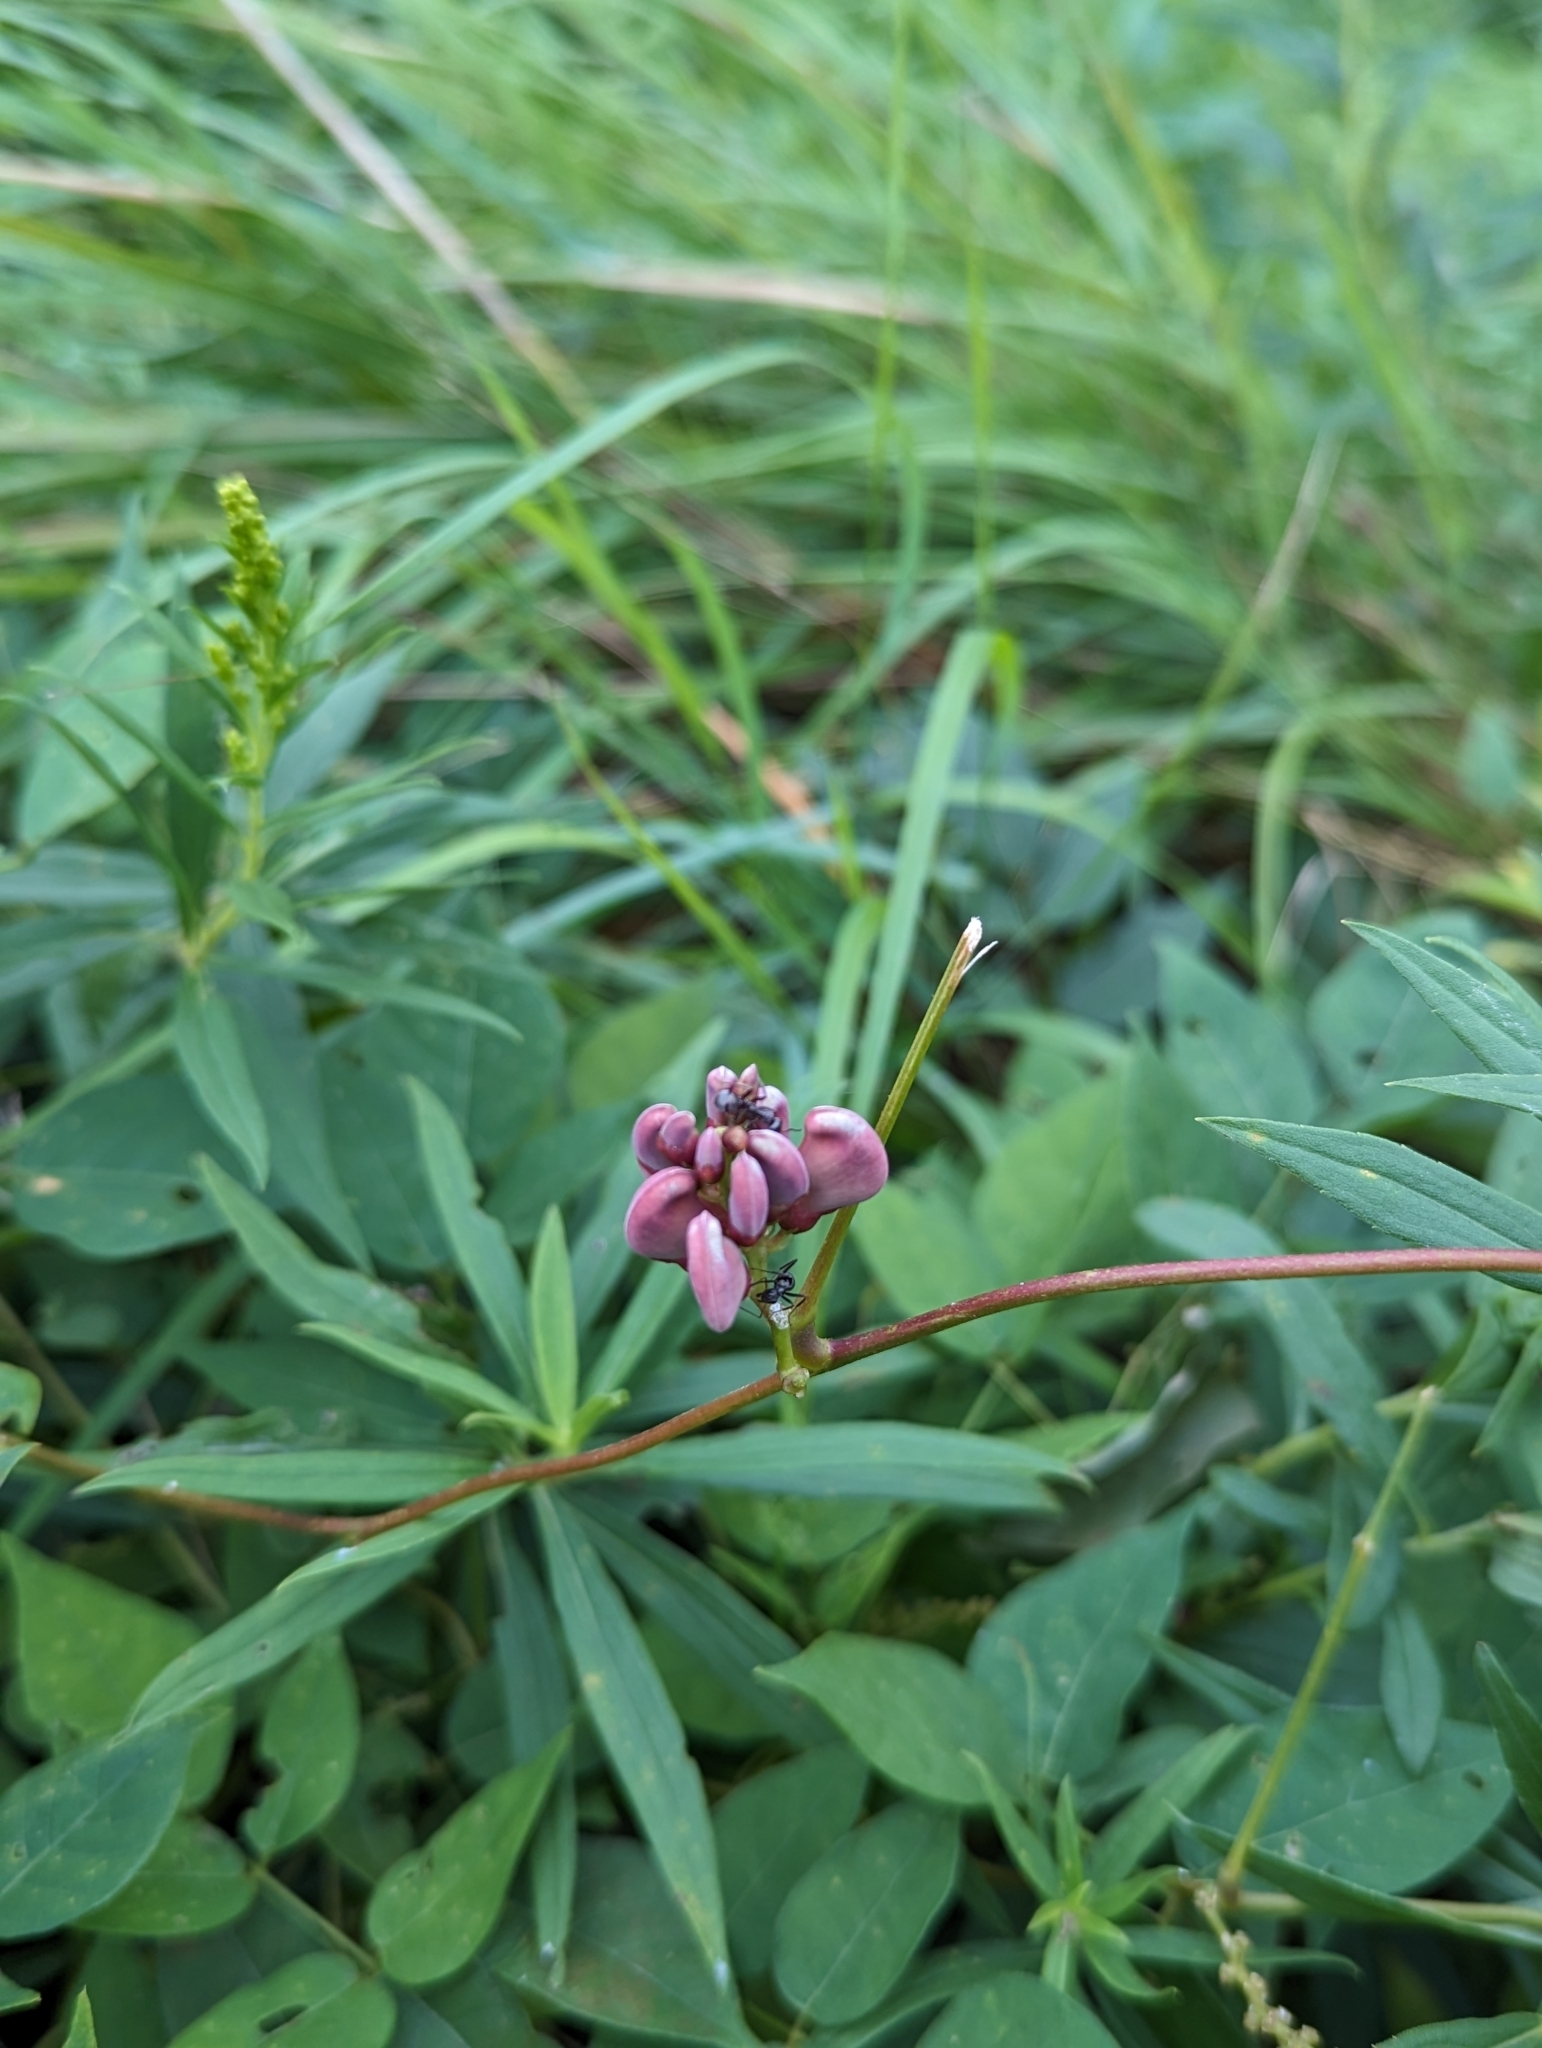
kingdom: Plantae
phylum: Tracheophyta
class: Magnoliopsida
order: Fabales
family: Fabaceae
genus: Apios
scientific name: Apios americana
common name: American potato-bean
